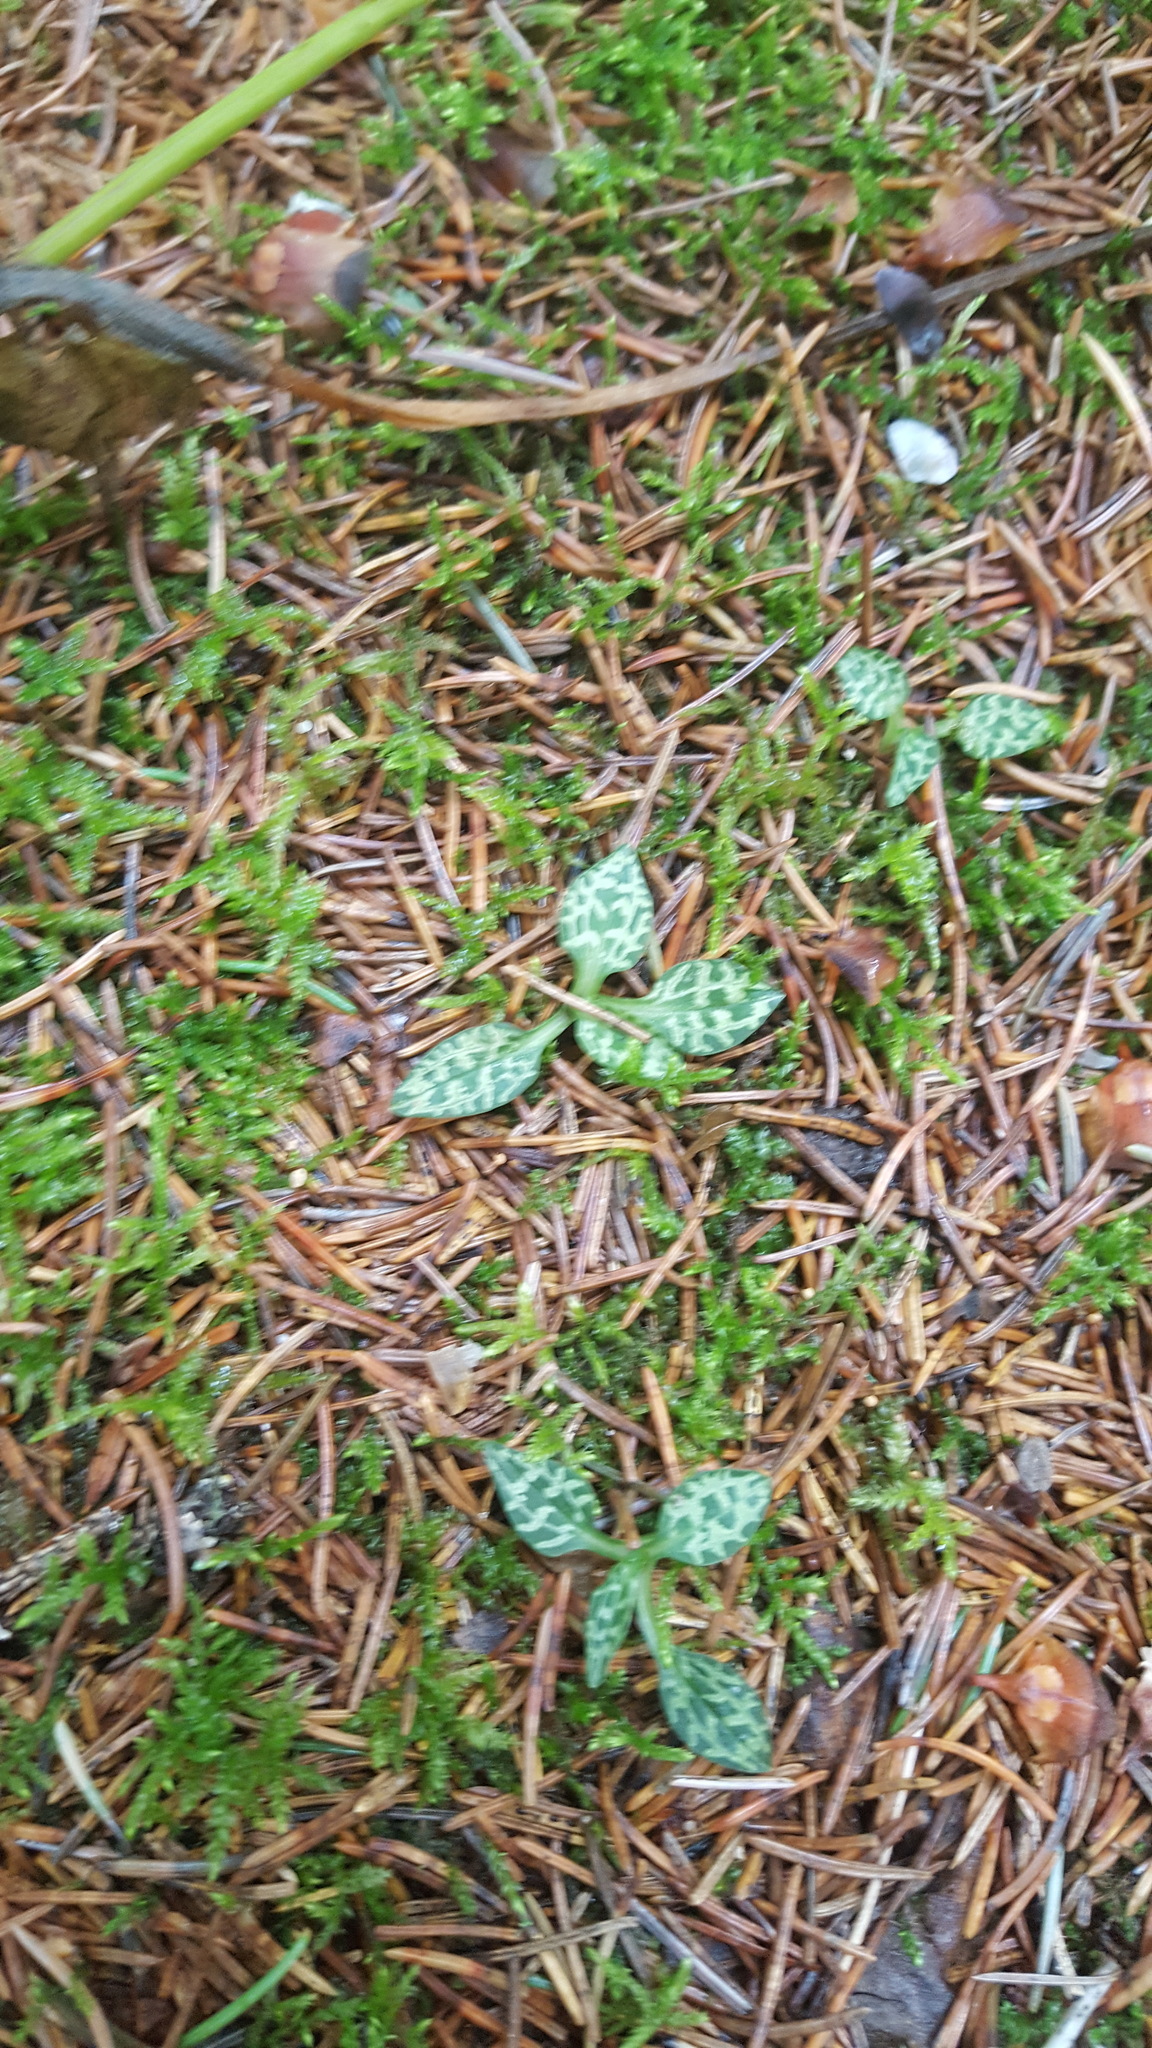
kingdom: Plantae
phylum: Tracheophyta
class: Liliopsida
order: Asparagales
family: Orchidaceae
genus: Goodyera
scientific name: Goodyera repens
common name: Creeping lady's-tresses
